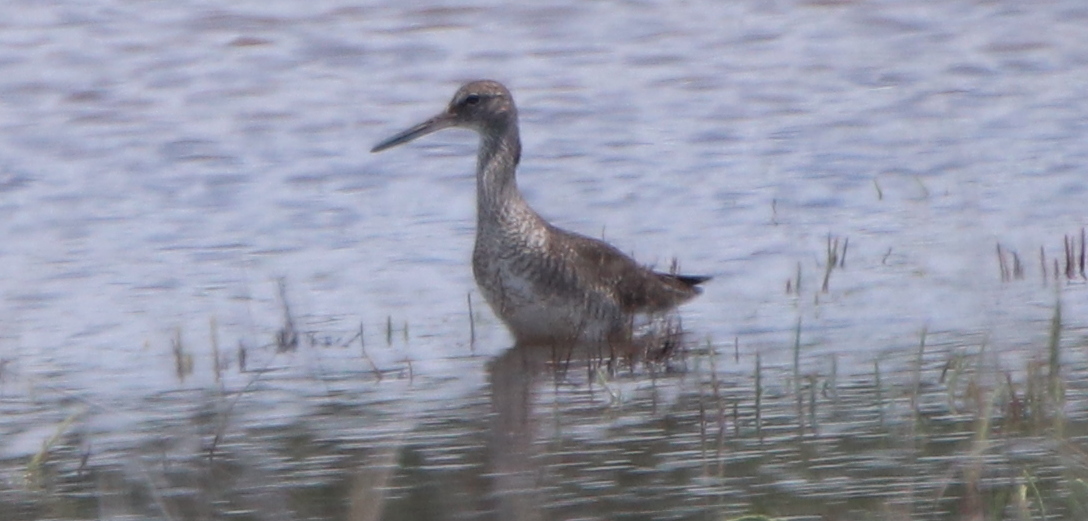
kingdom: Animalia
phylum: Chordata
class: Aves
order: Charadriiformes
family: Scolopacidae
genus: Tringa
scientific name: Tringa semipalmata
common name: Willet
